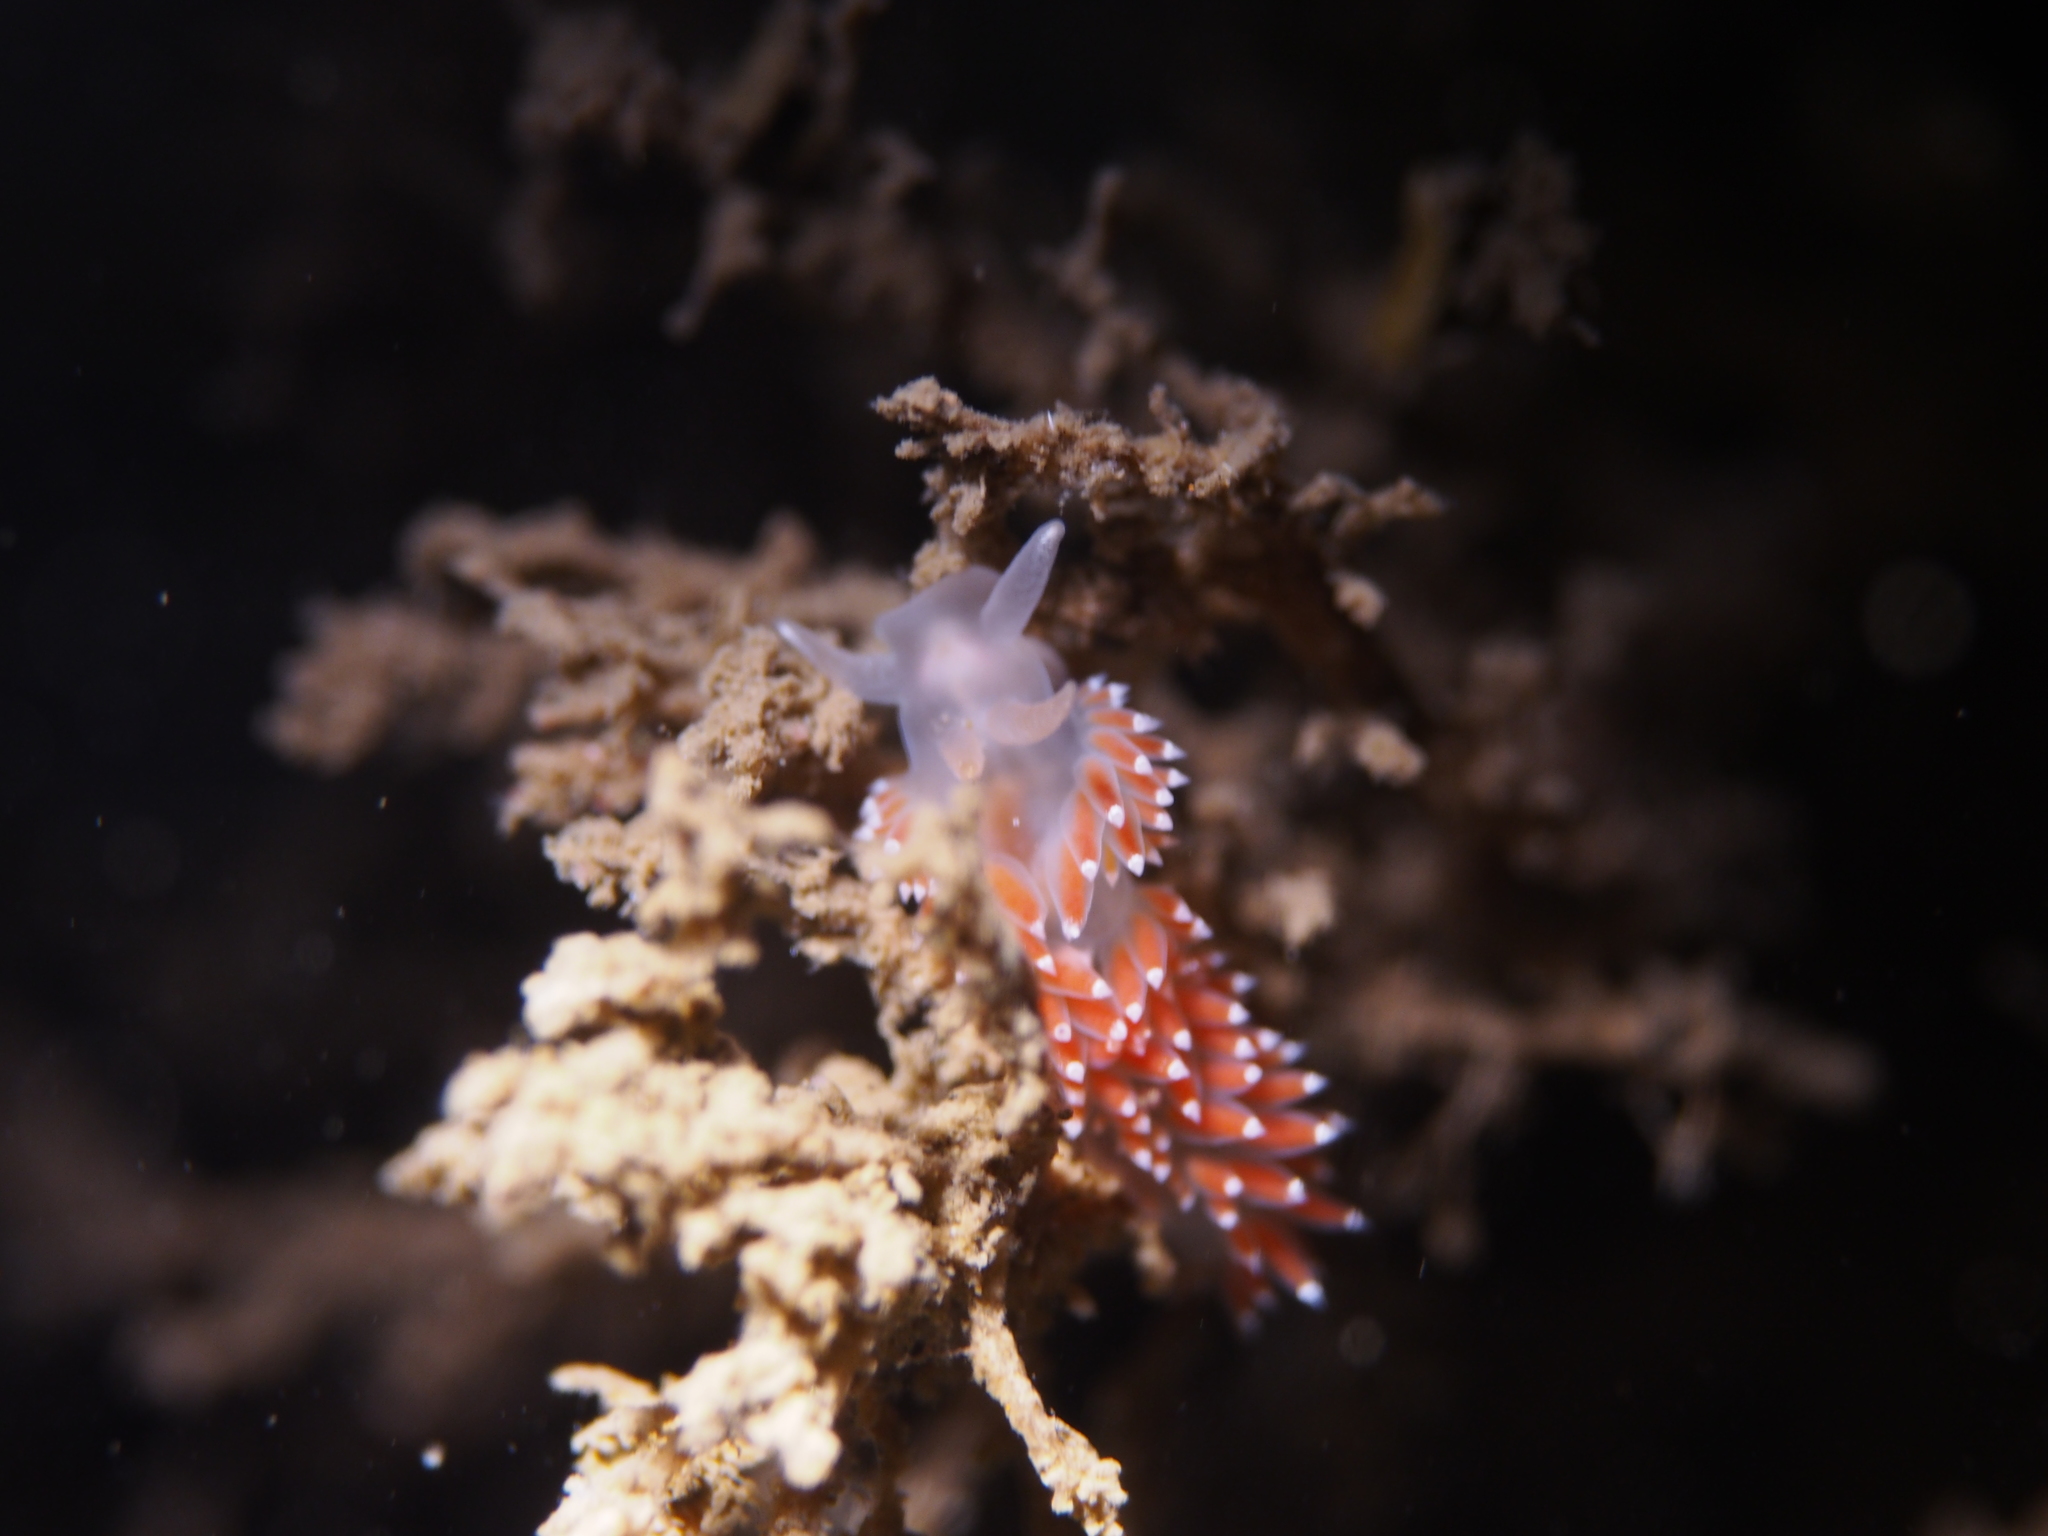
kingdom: Animalia
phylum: Mollusca
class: Gastropoda
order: Nudibranchia
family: Coryphellidae
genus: Coryphella
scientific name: Coryphella verrucosa
